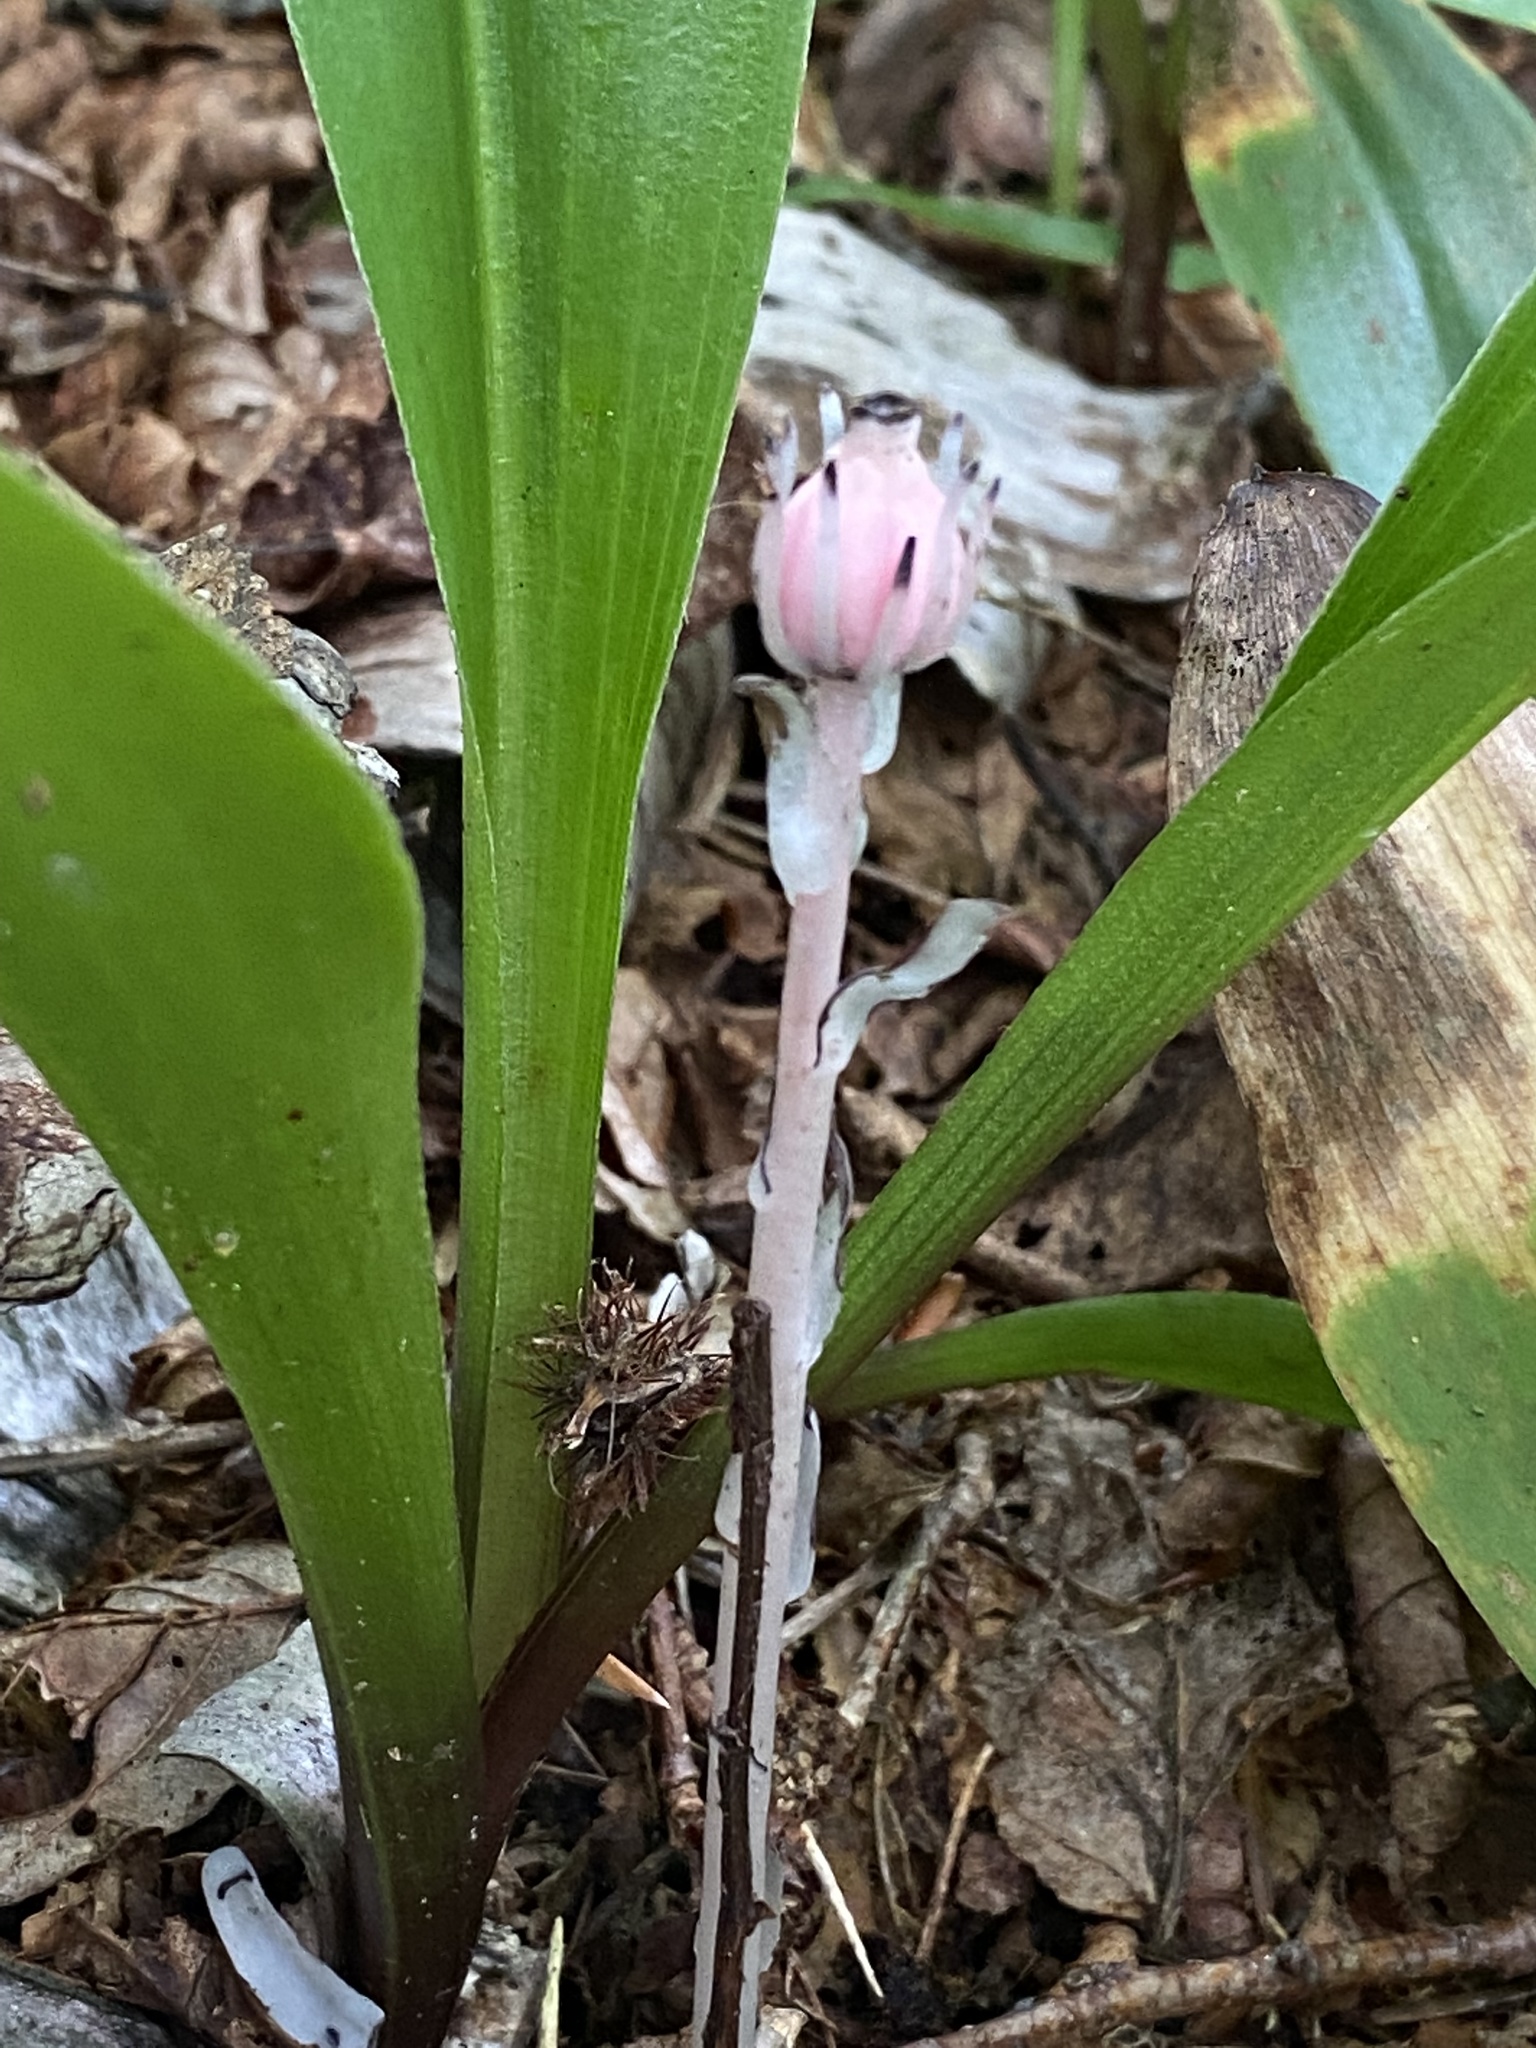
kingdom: Plantae
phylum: Tracheophyta
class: Magnoliopsida
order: Ericales
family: Ericaceae
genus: Monotropa
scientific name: Monotropa uniflora
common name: Convulsion root
